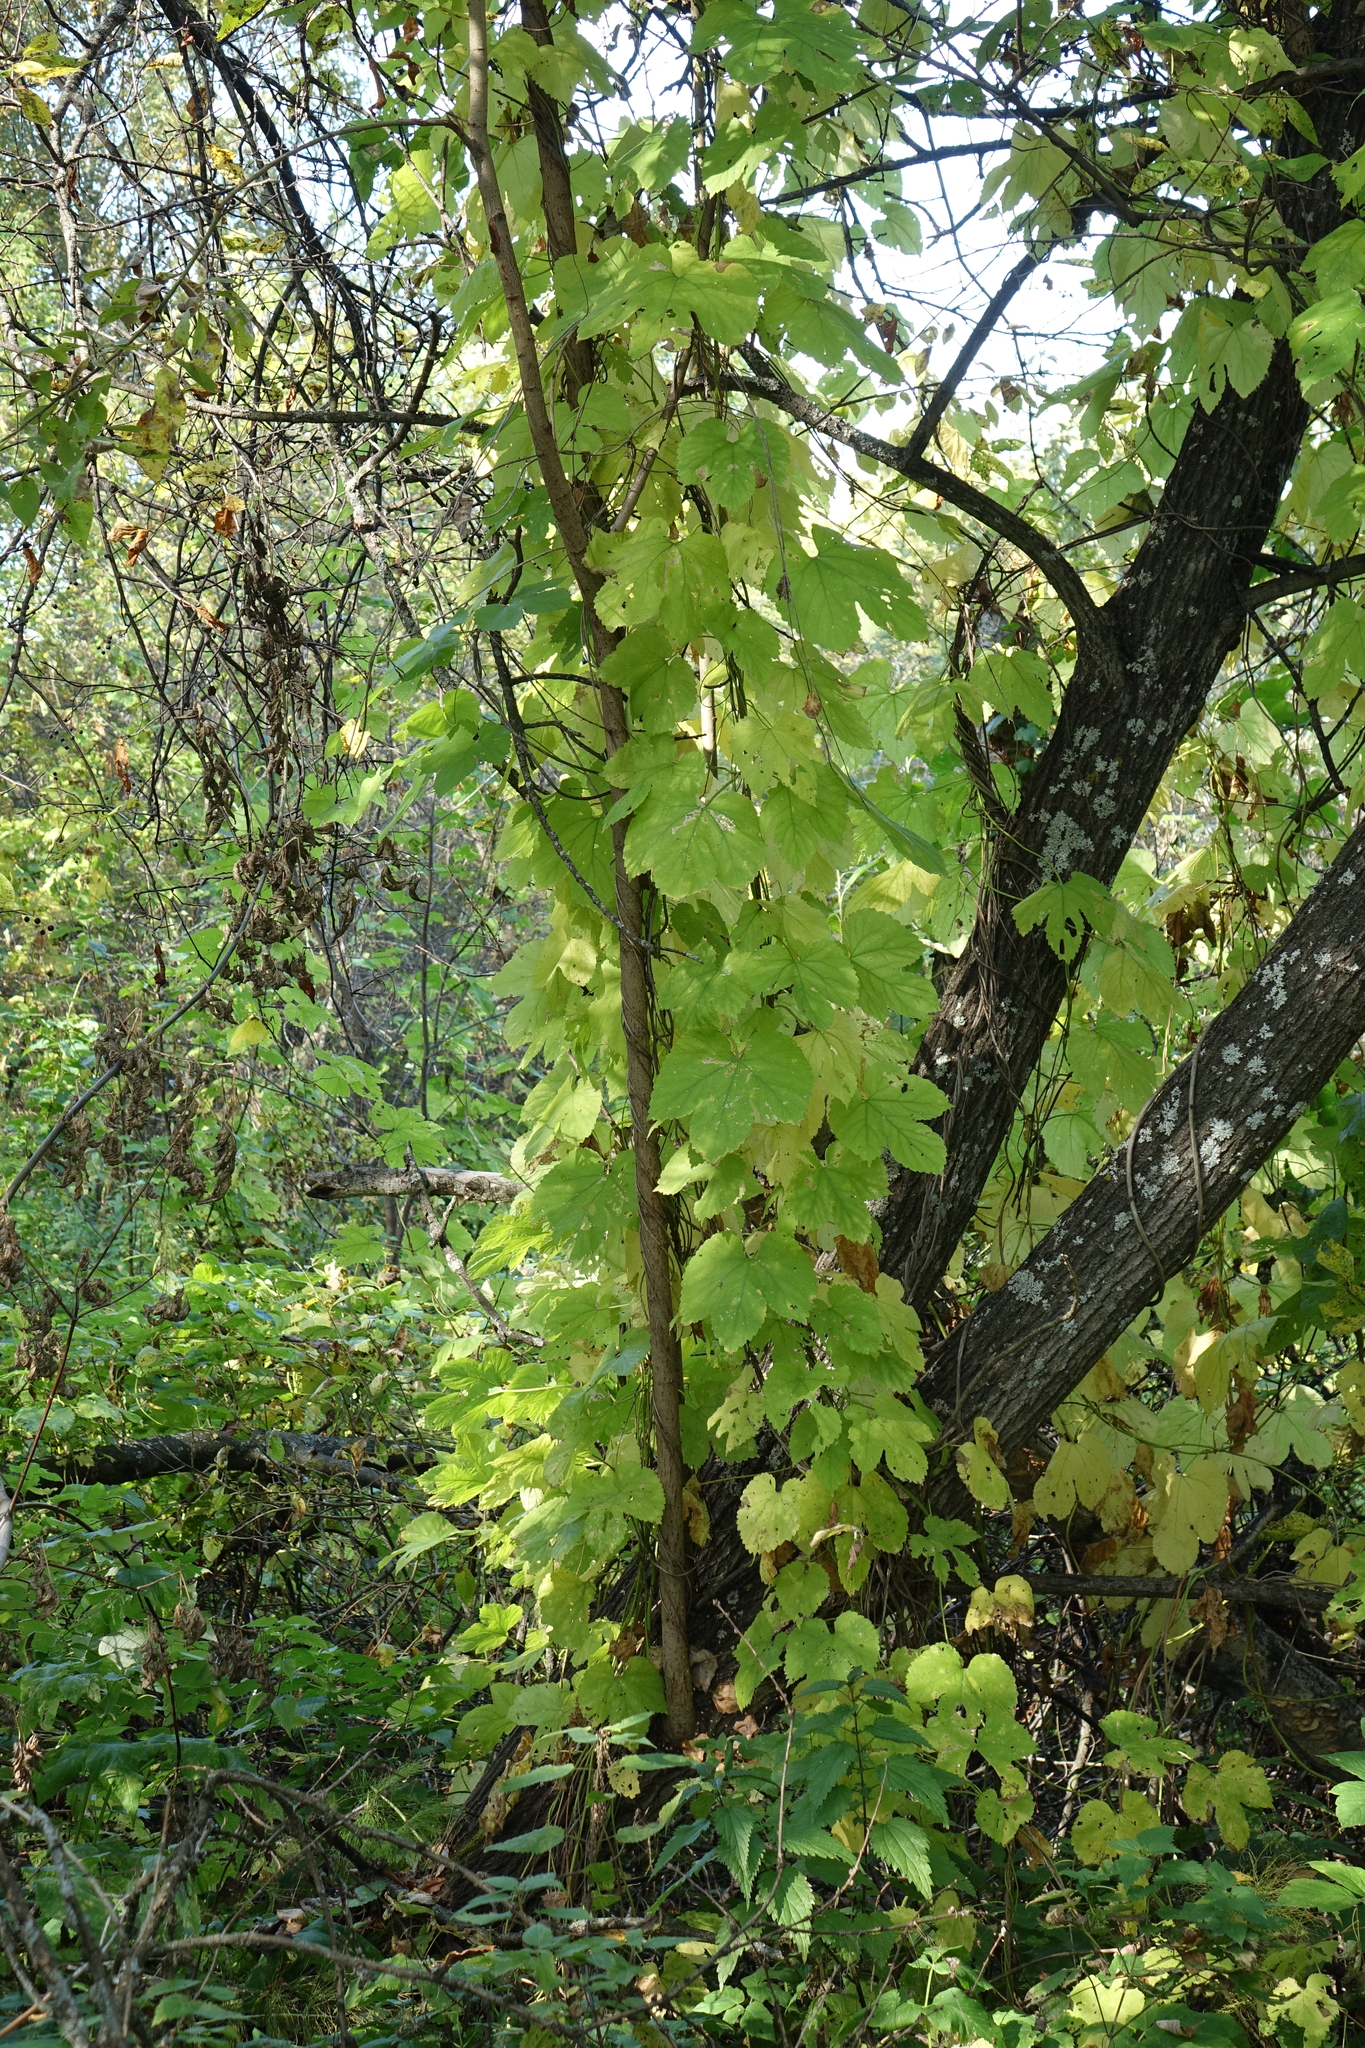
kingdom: Plantae
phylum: Tracheophyta
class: Magnoliopsida
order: Rosales
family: Cannabaceae
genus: Humulus
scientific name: Humulus lupulus
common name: Hop
